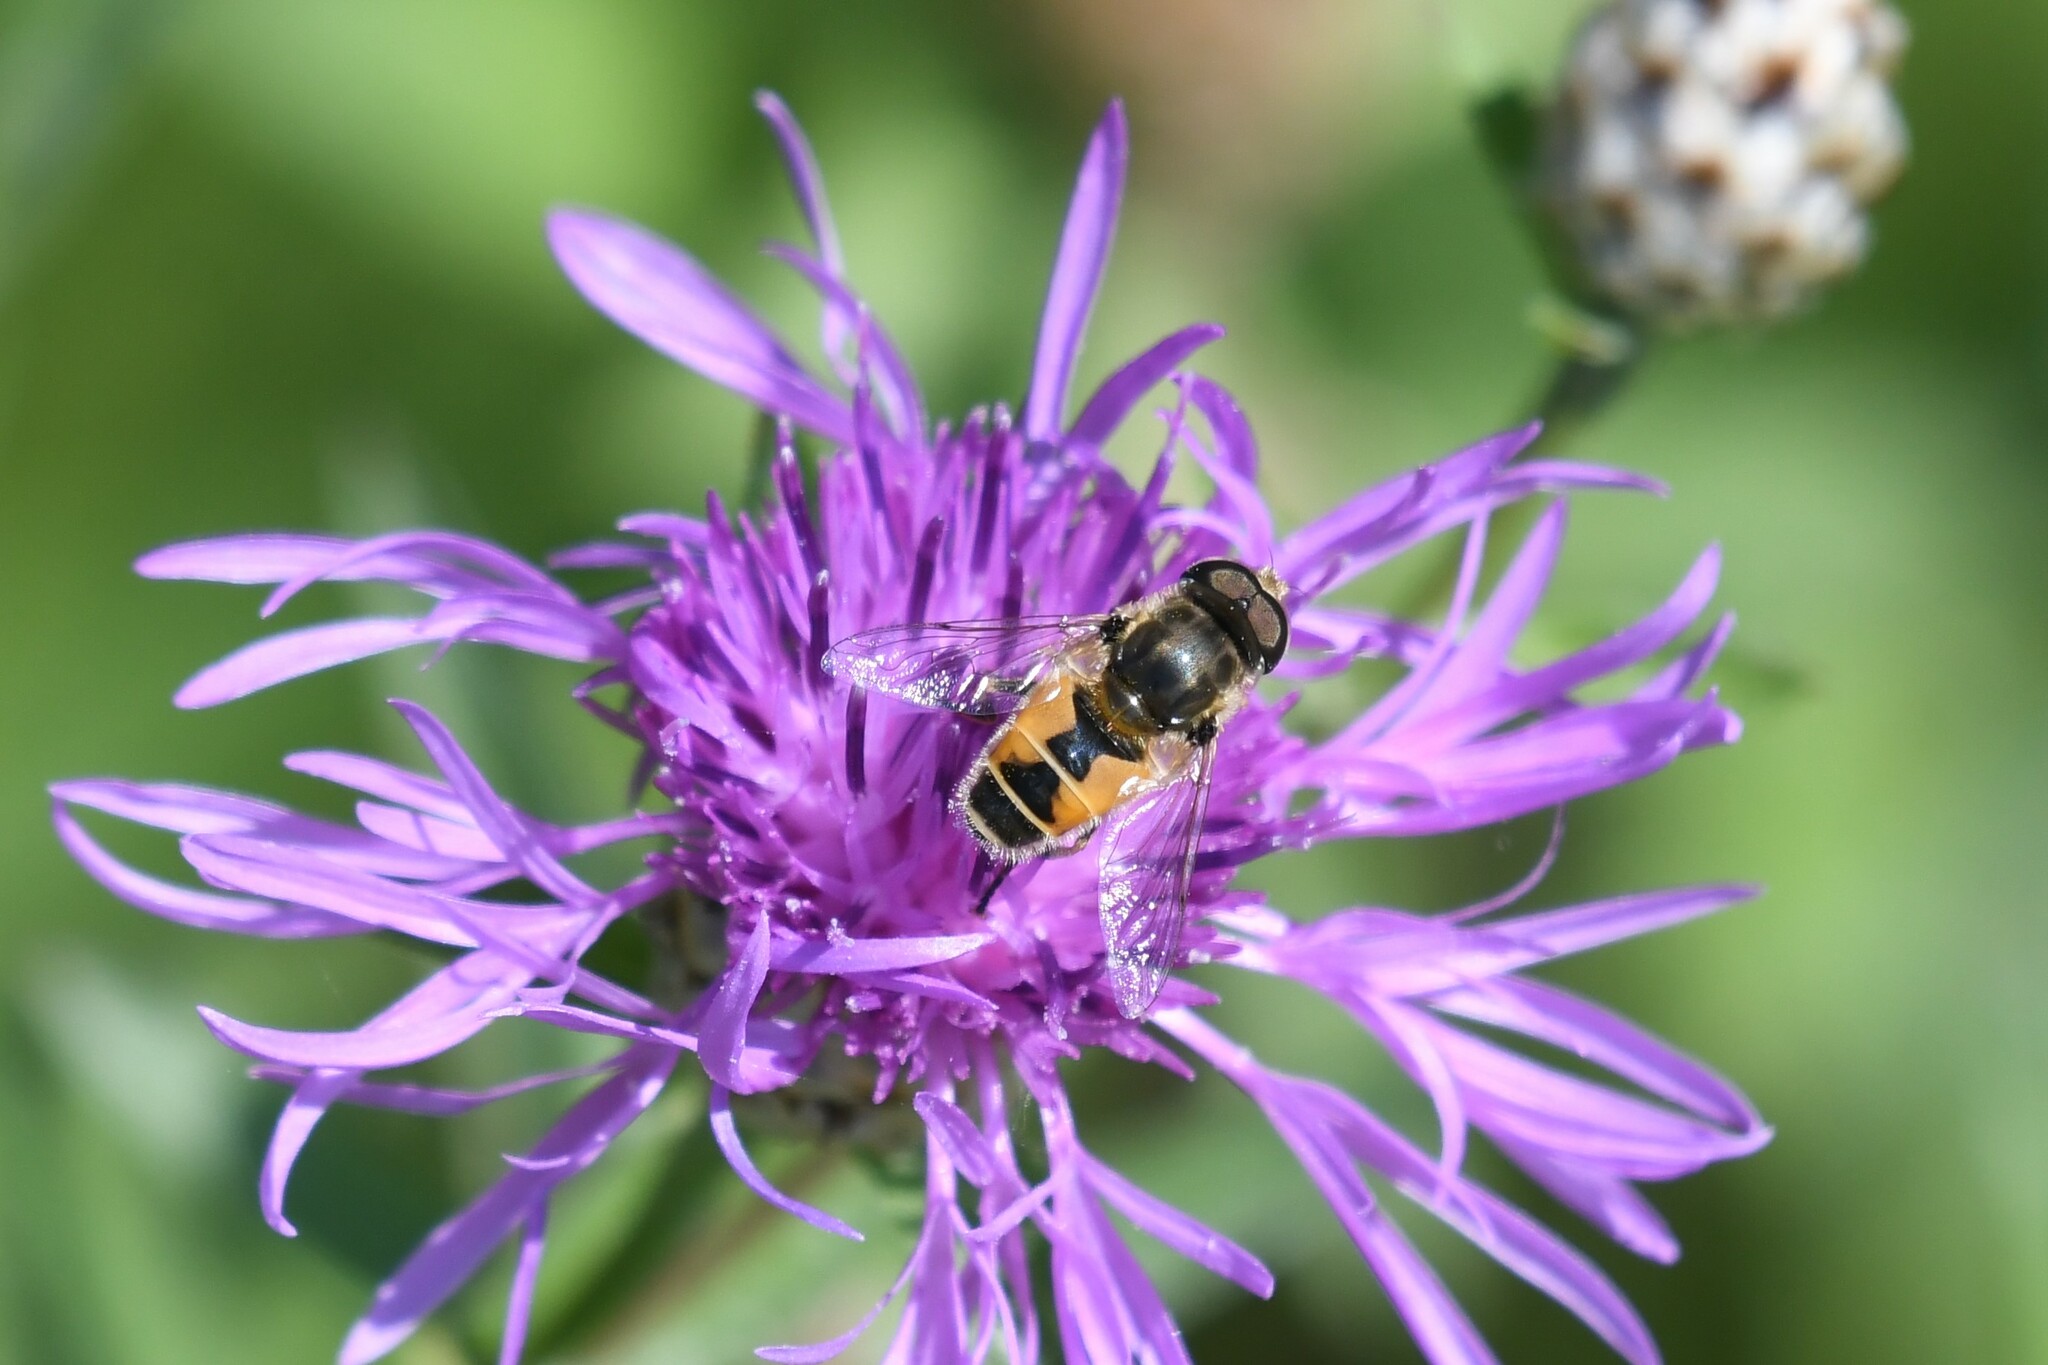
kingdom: Animalia
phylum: Arthropoda
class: Insecta
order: Diptera
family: Syrphidae
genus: Eristalis
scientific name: Eristalis arbustorum
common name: Hover fly
